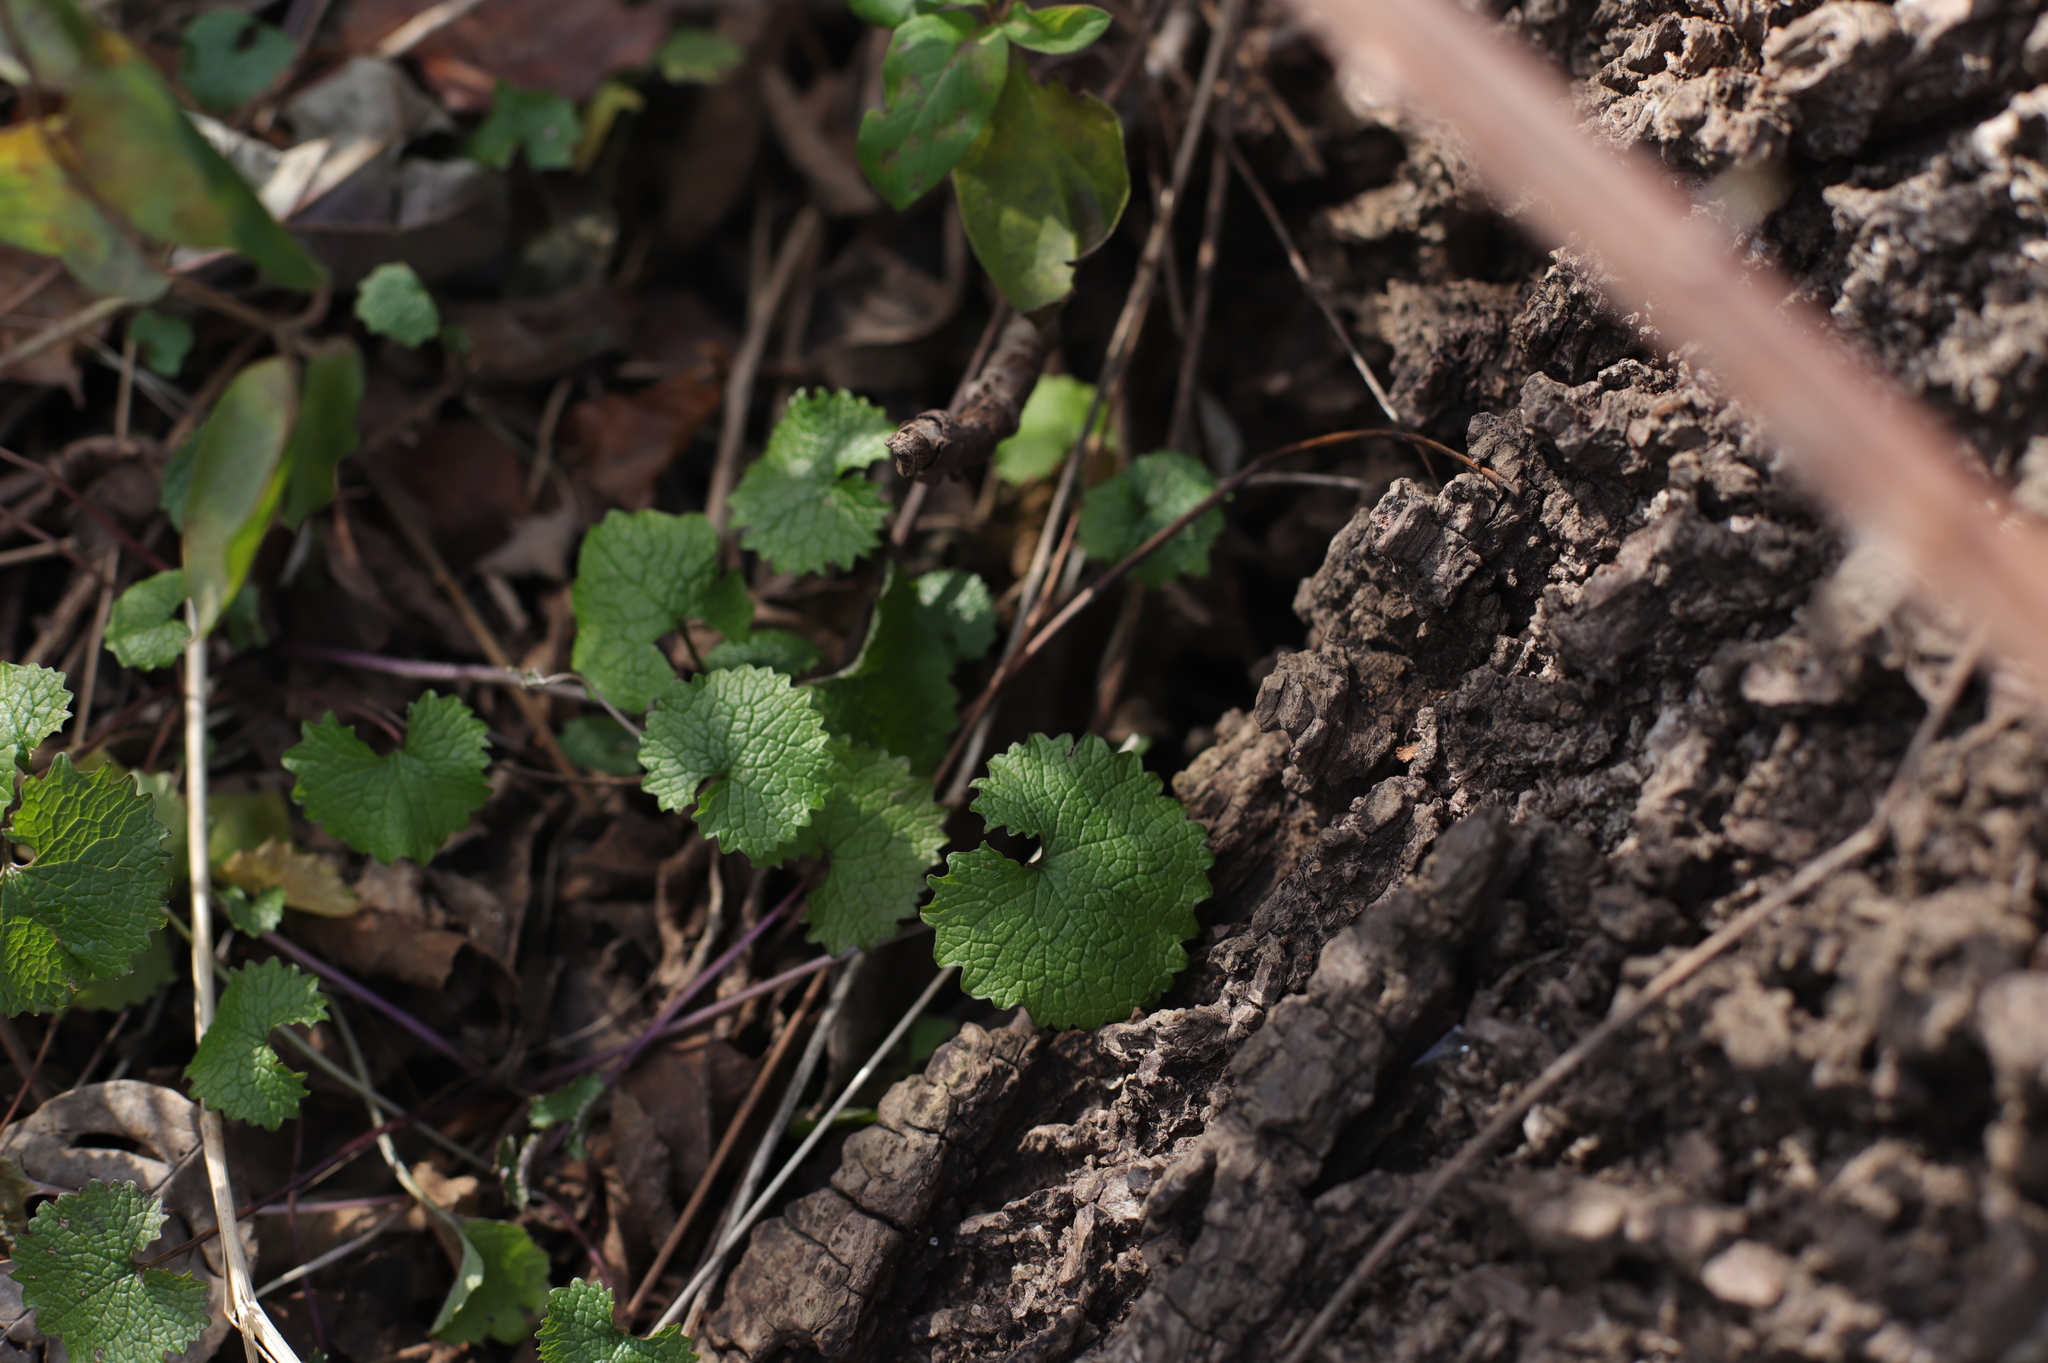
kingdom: Plantae
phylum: Tracheophyta
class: Magnoliopsida
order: Brassicales
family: Brassicaceae
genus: Alliaria
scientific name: Alliaria petiolata
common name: Garlic mustard
